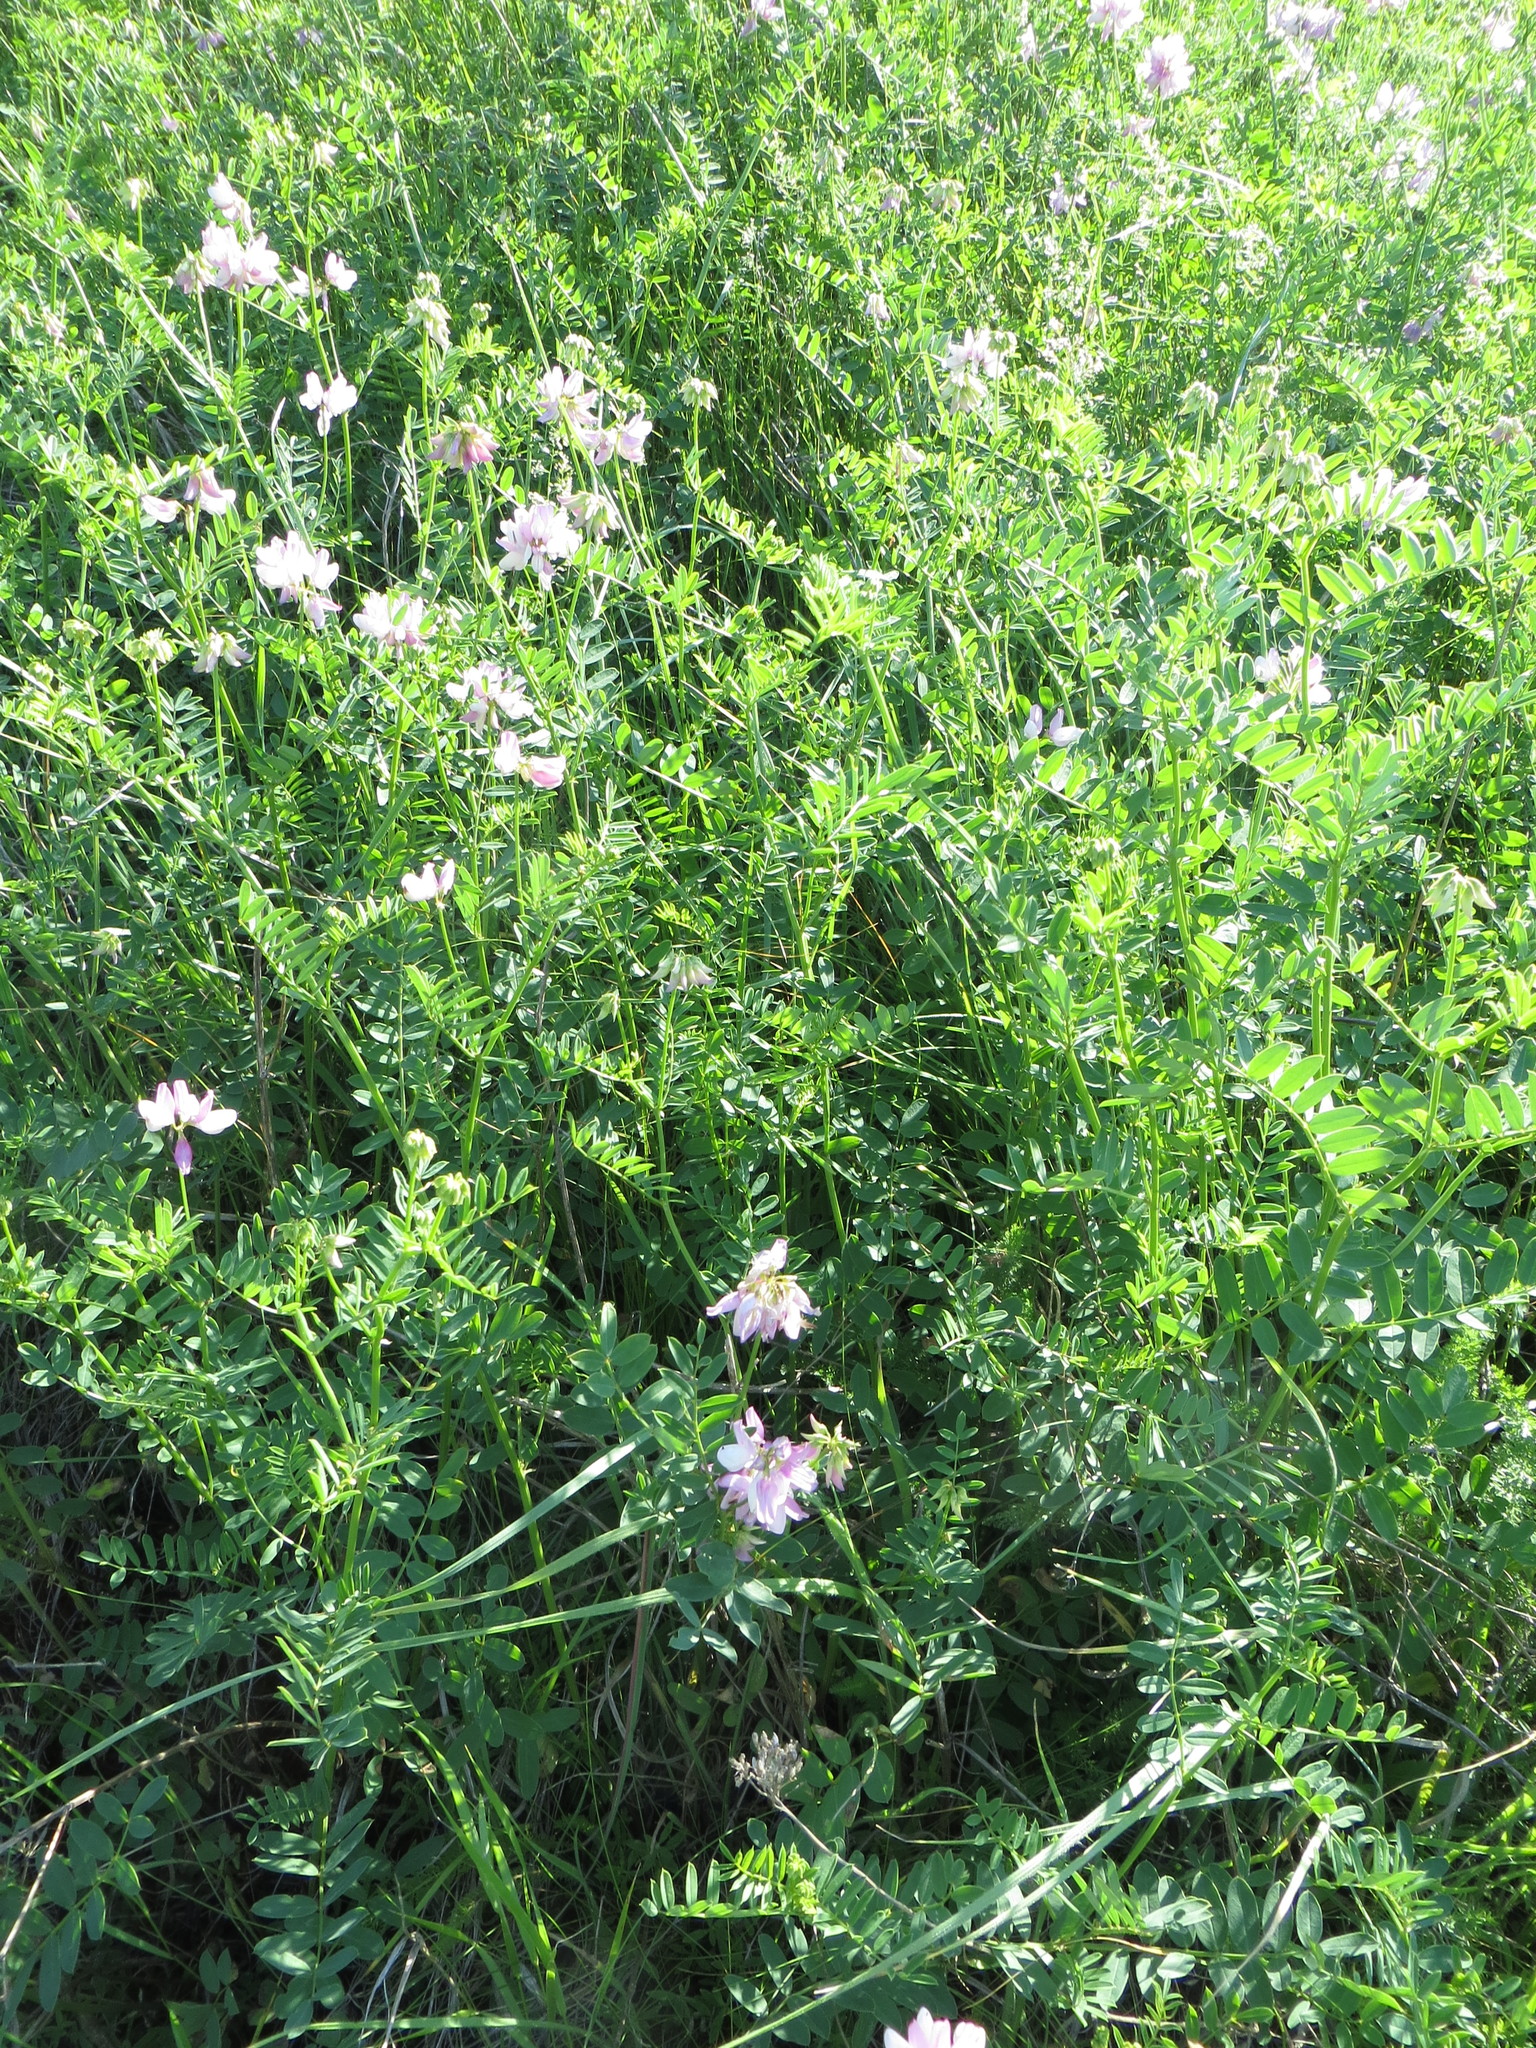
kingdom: Plantae
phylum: Tracheophyta
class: Magnoliopsida
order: Fabales
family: Fabaceae
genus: Coronilla
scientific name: Coronilla varia
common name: Crownvetch
